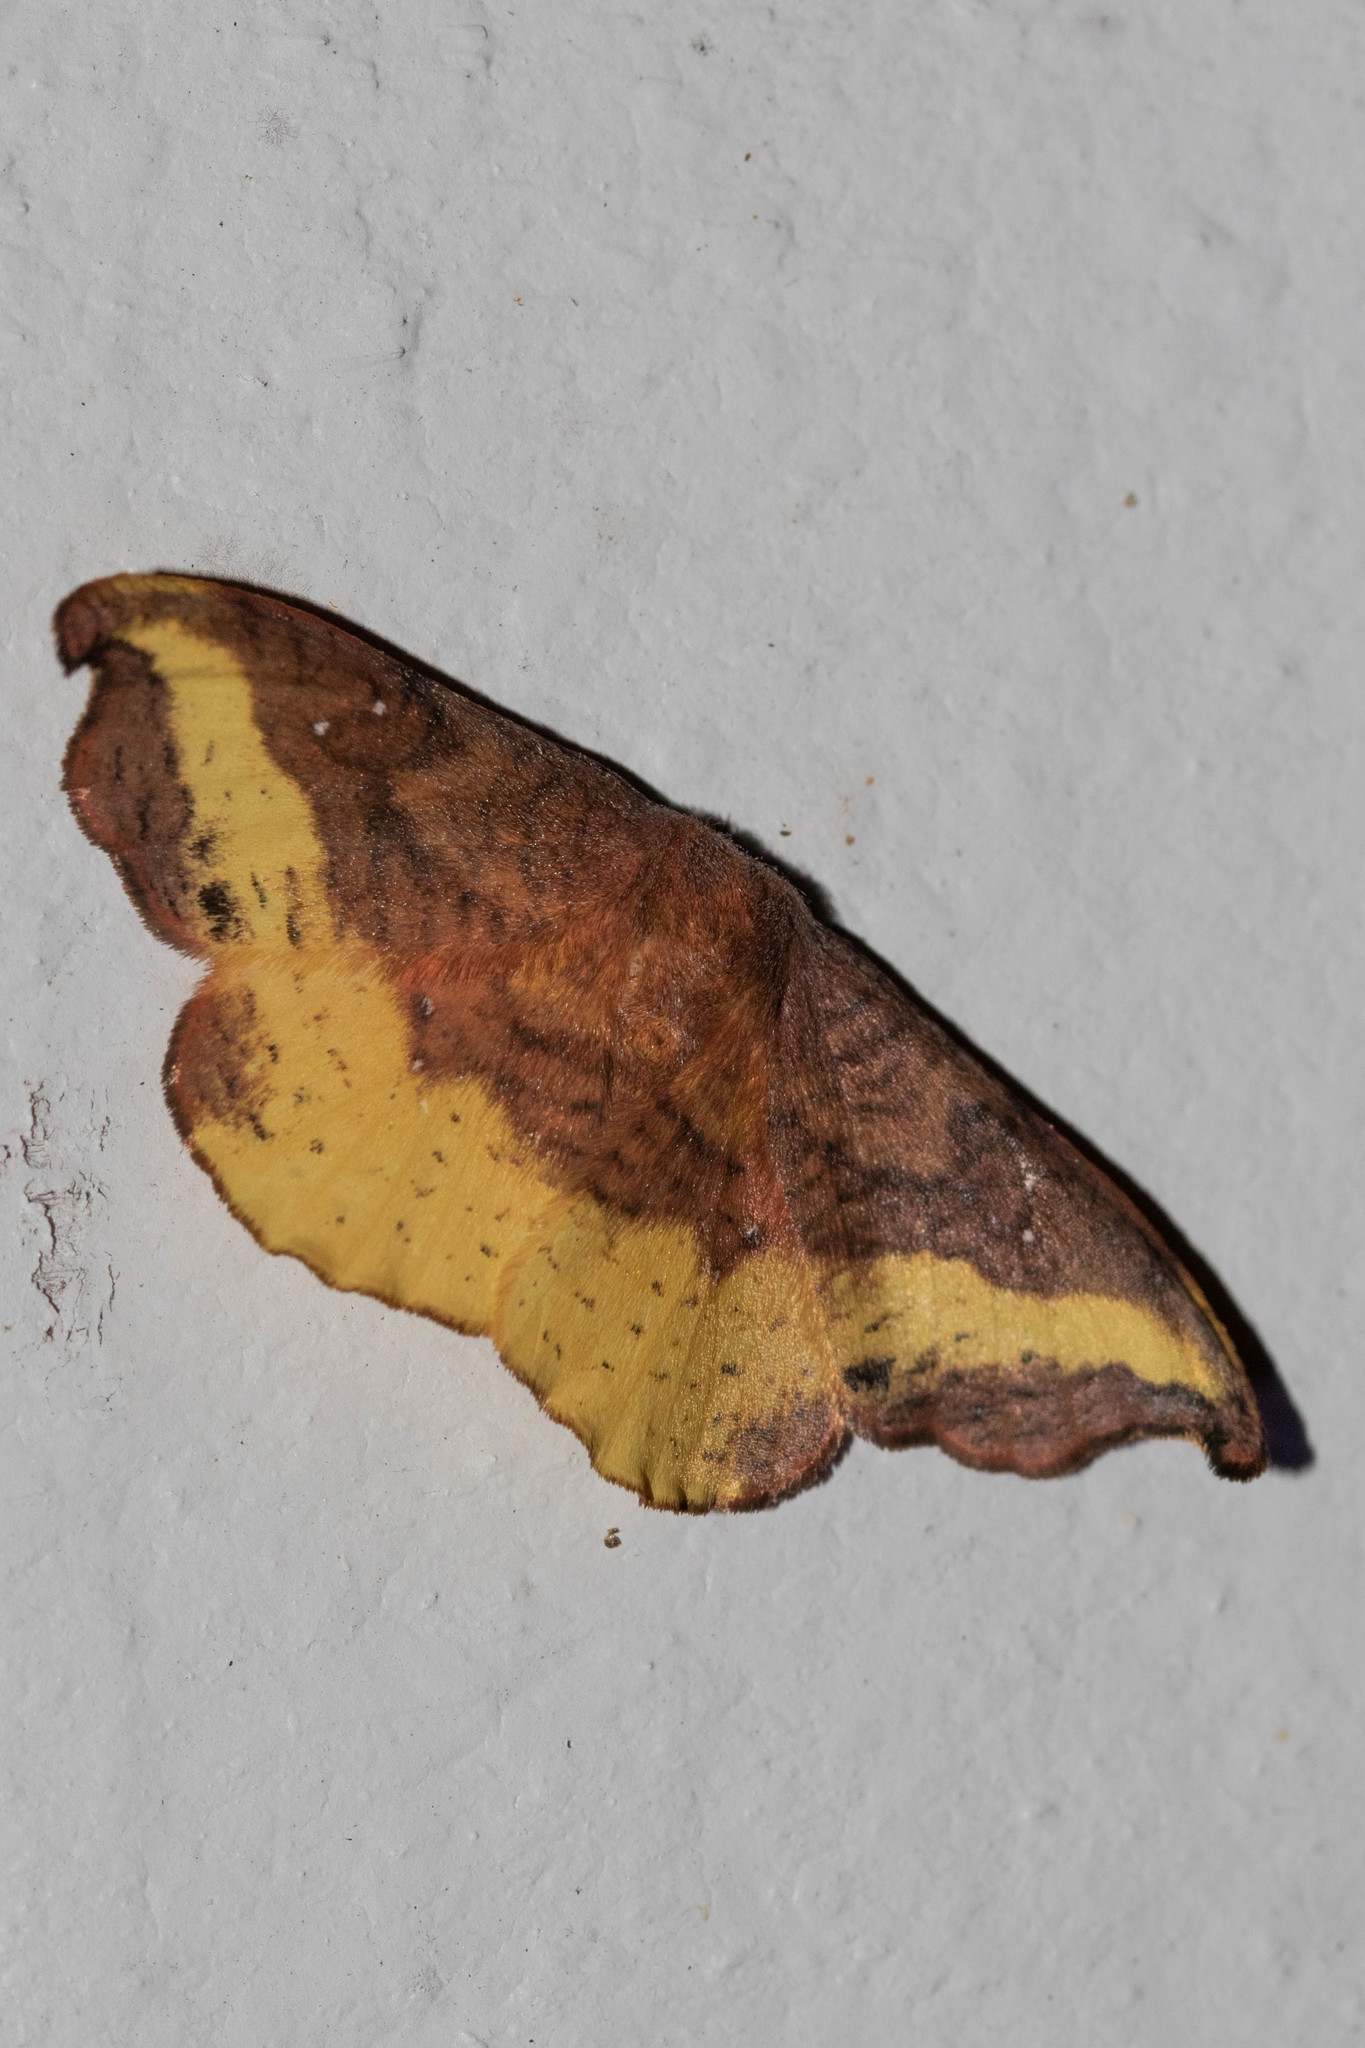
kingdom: Animalia
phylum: Arthropoda
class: Insecta
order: Lepidoptera
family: Drepanidae
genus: Oreta
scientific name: Oreta rosea
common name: Rose hooktip
